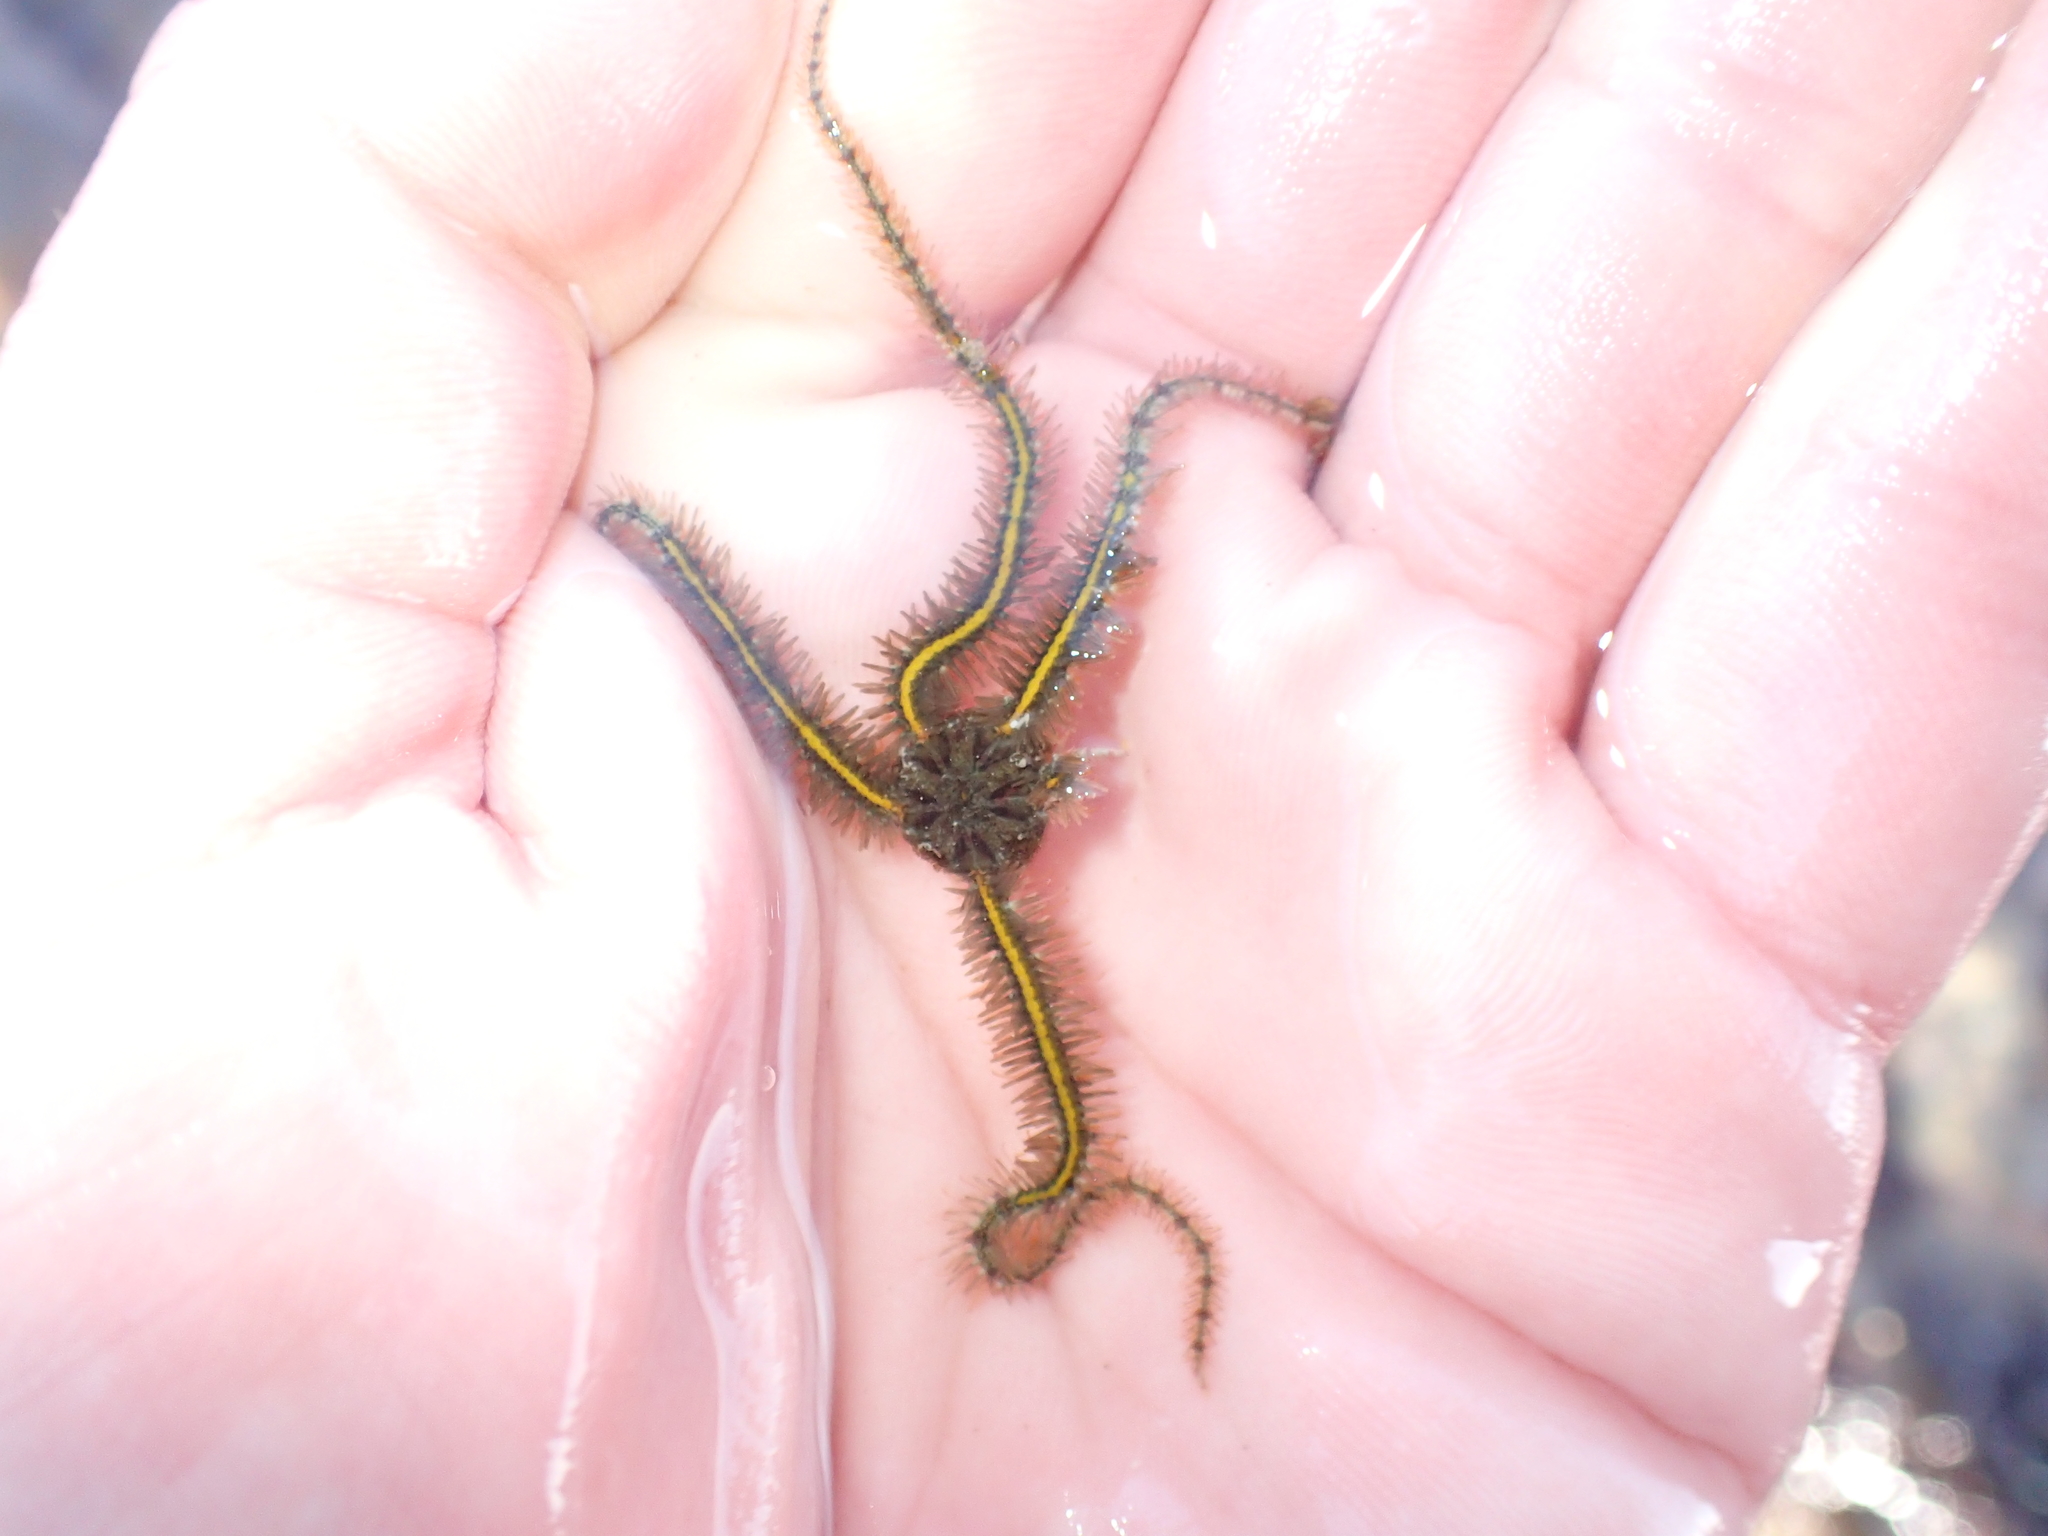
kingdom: Animalia
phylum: Echinodermata
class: Ophiuroidea
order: Amphilepidida
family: Ophiotrichidae
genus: Ophiothrix
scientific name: Ophiothrix fragilis
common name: Common brittlestar
